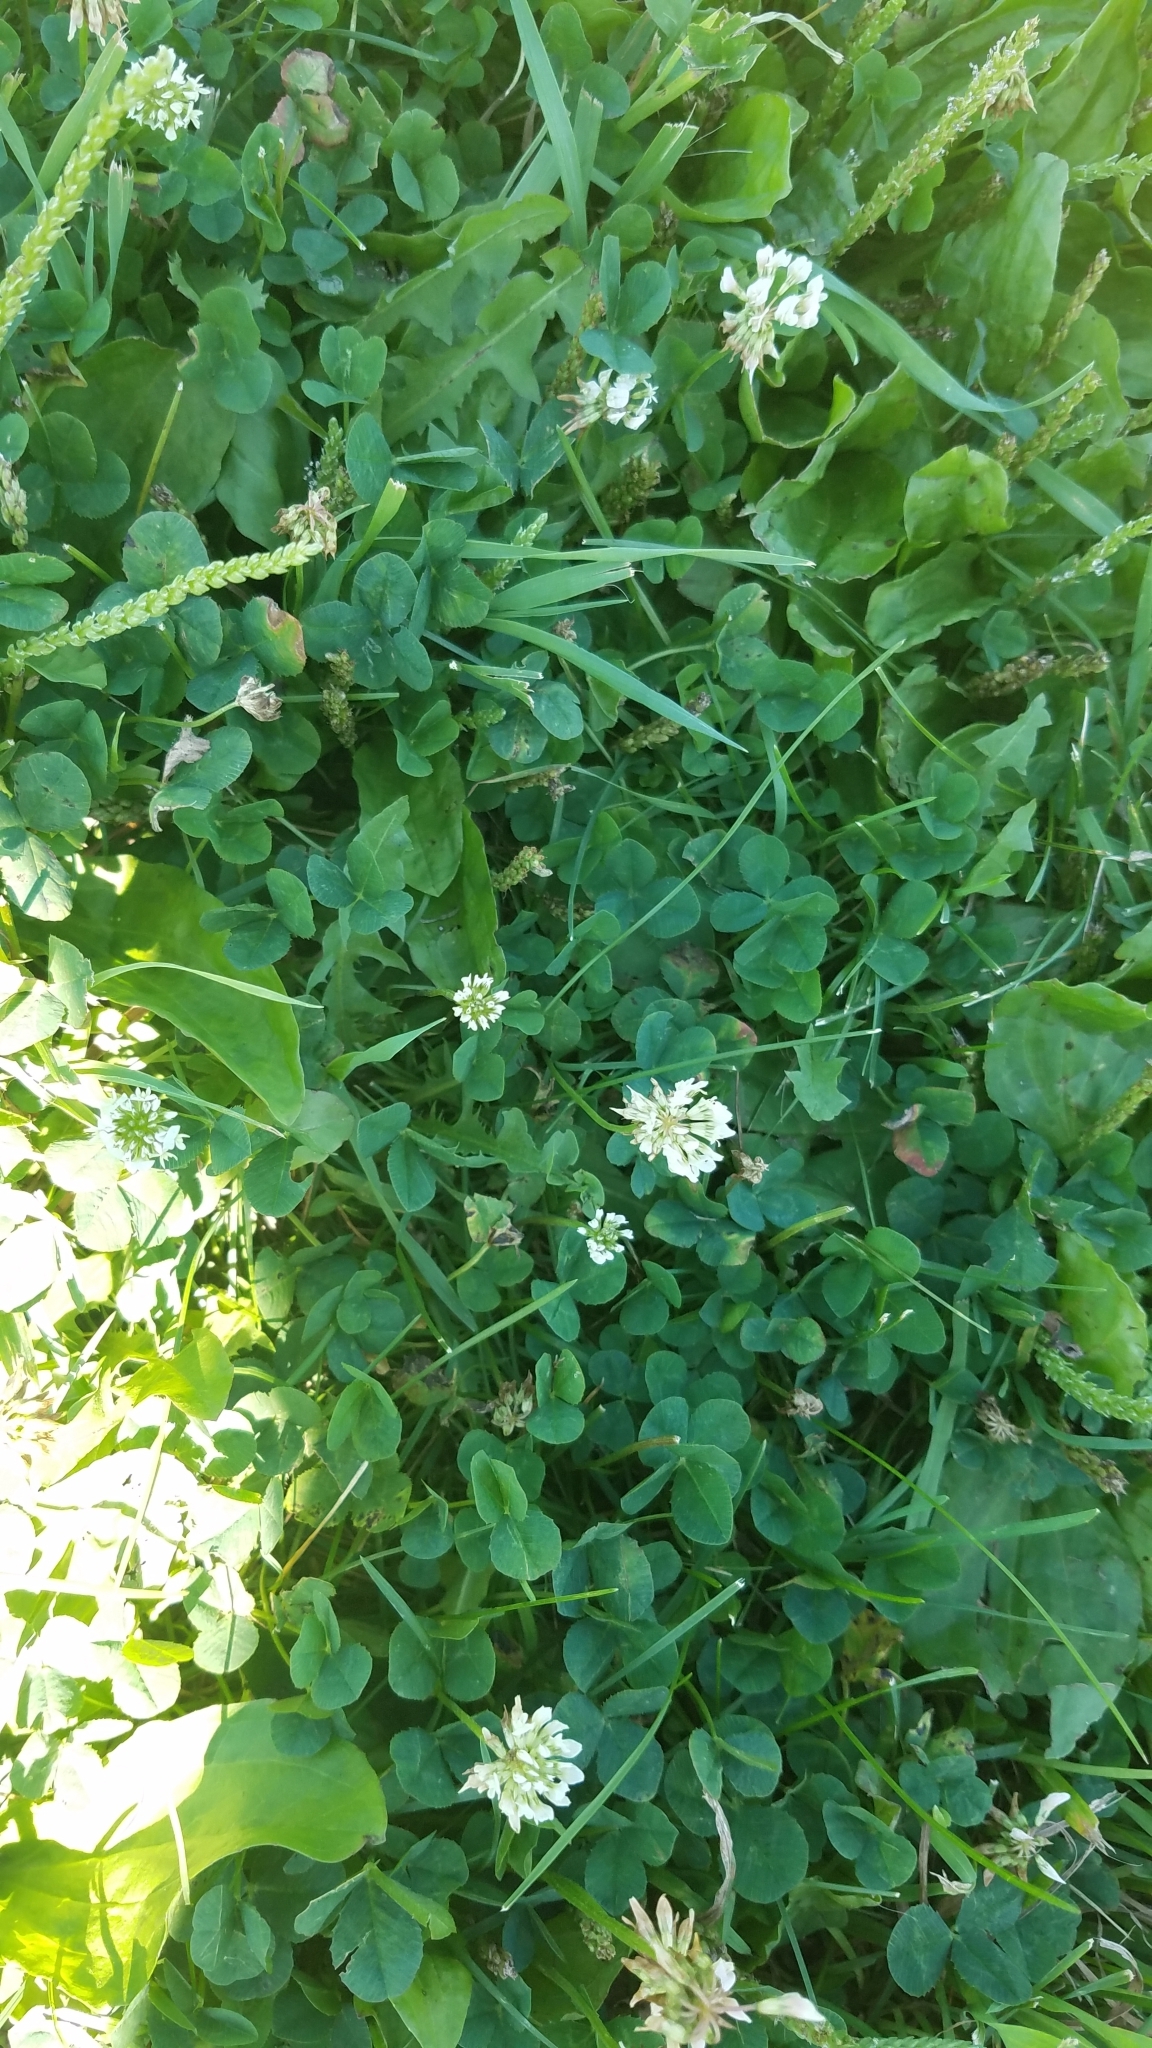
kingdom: Plantae
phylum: Tracheophyta
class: Magnoliopsida
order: Fabales
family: Fabaceae
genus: Trifolium
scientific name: Trifolium repens
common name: White clover
